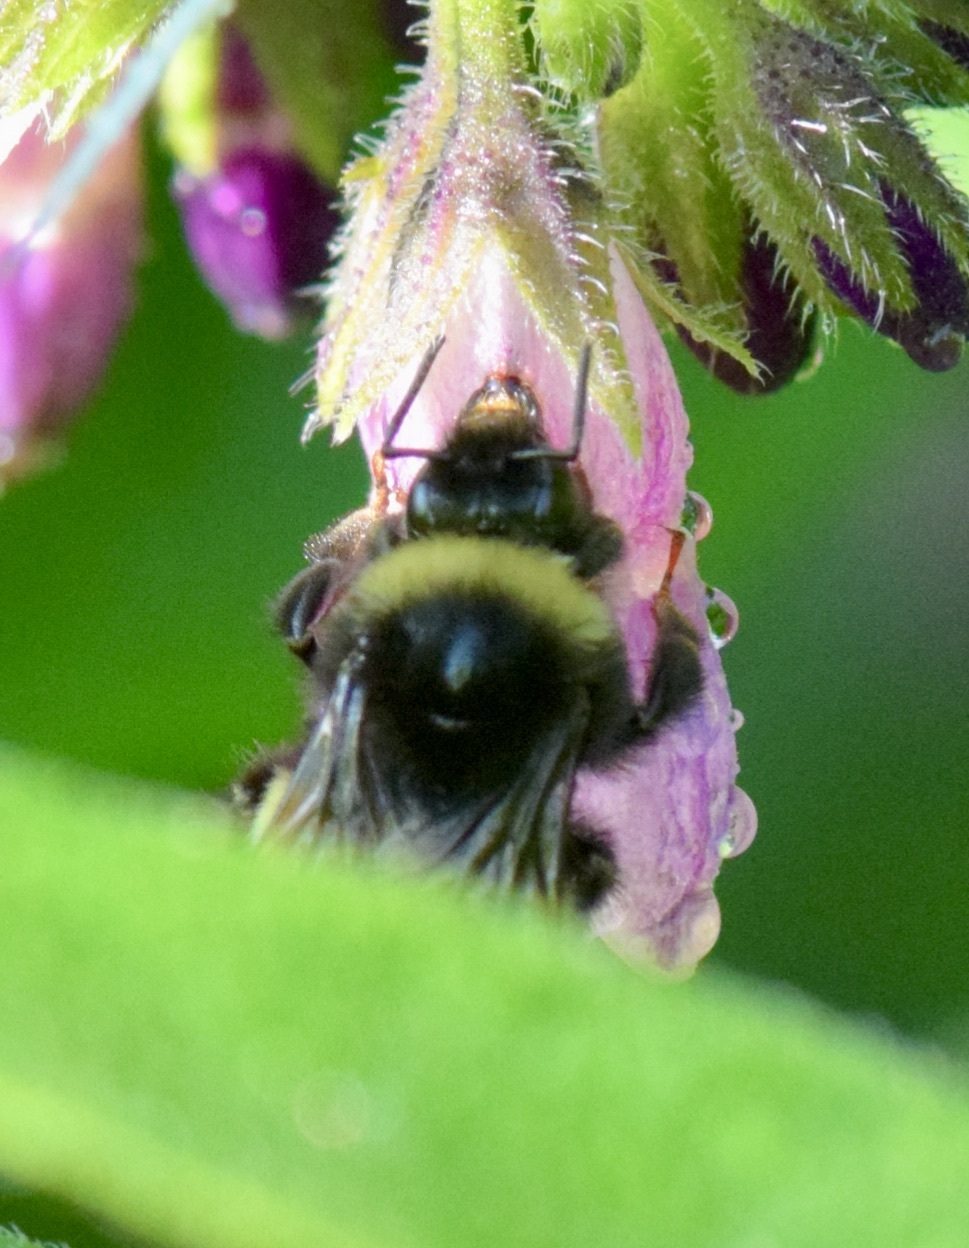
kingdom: Animalia
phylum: Arthropoda
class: Insecta
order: Hymenoptera
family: Apidae
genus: Bombus
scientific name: Bombus terricola
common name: Yellow-banded bumble bee
